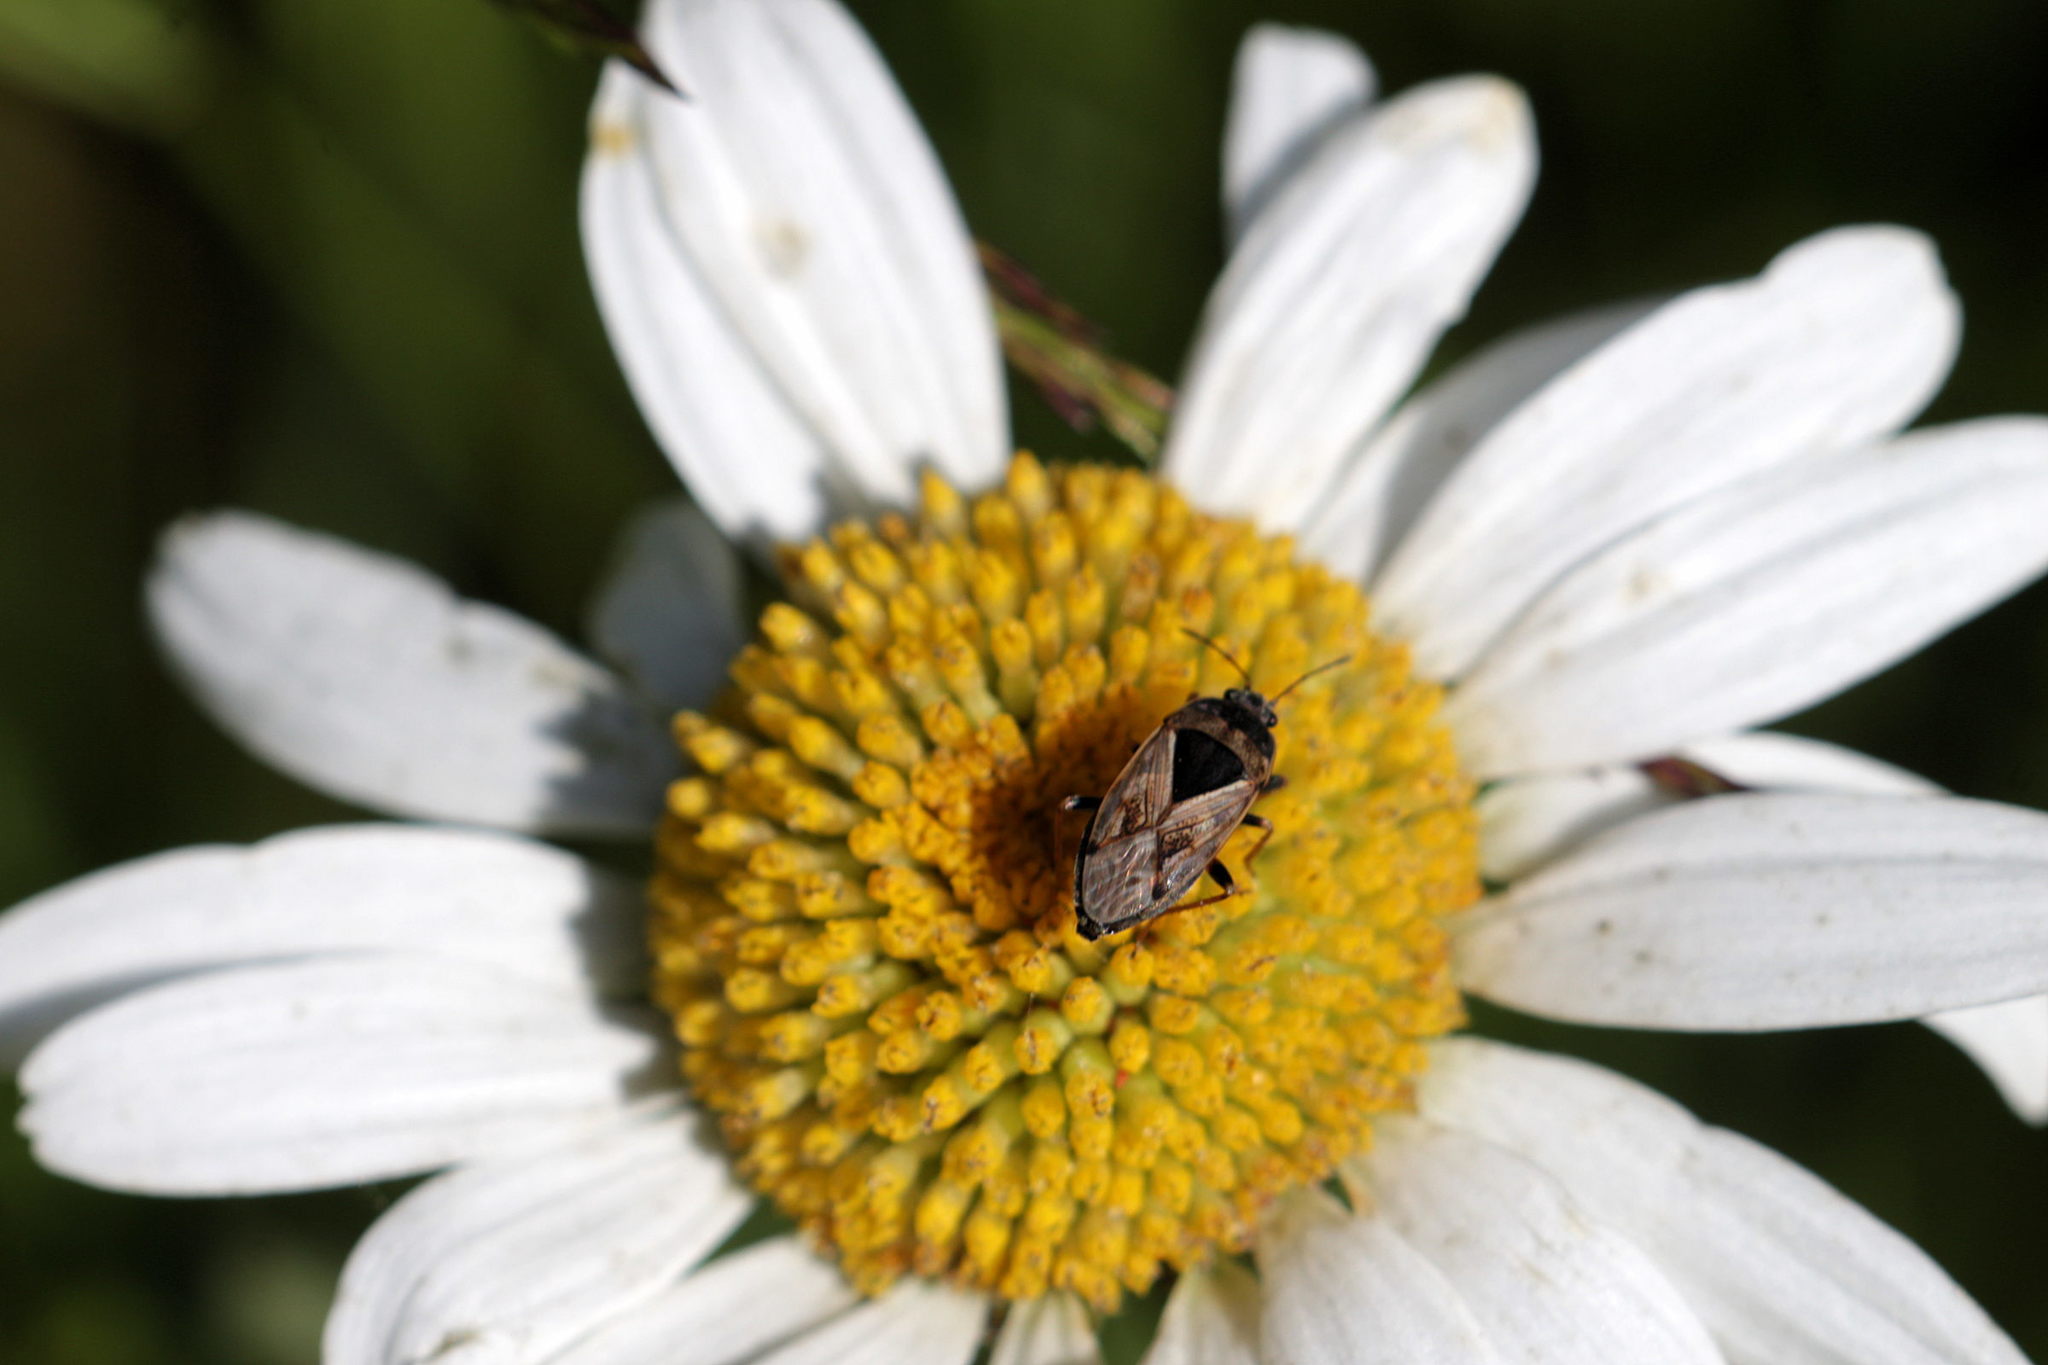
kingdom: Animalia
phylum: Arthropoda
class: Insecta
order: Hemiptera
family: Rhyparochromidae
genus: Trapezonotus
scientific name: Trapezonotus ullrichi
